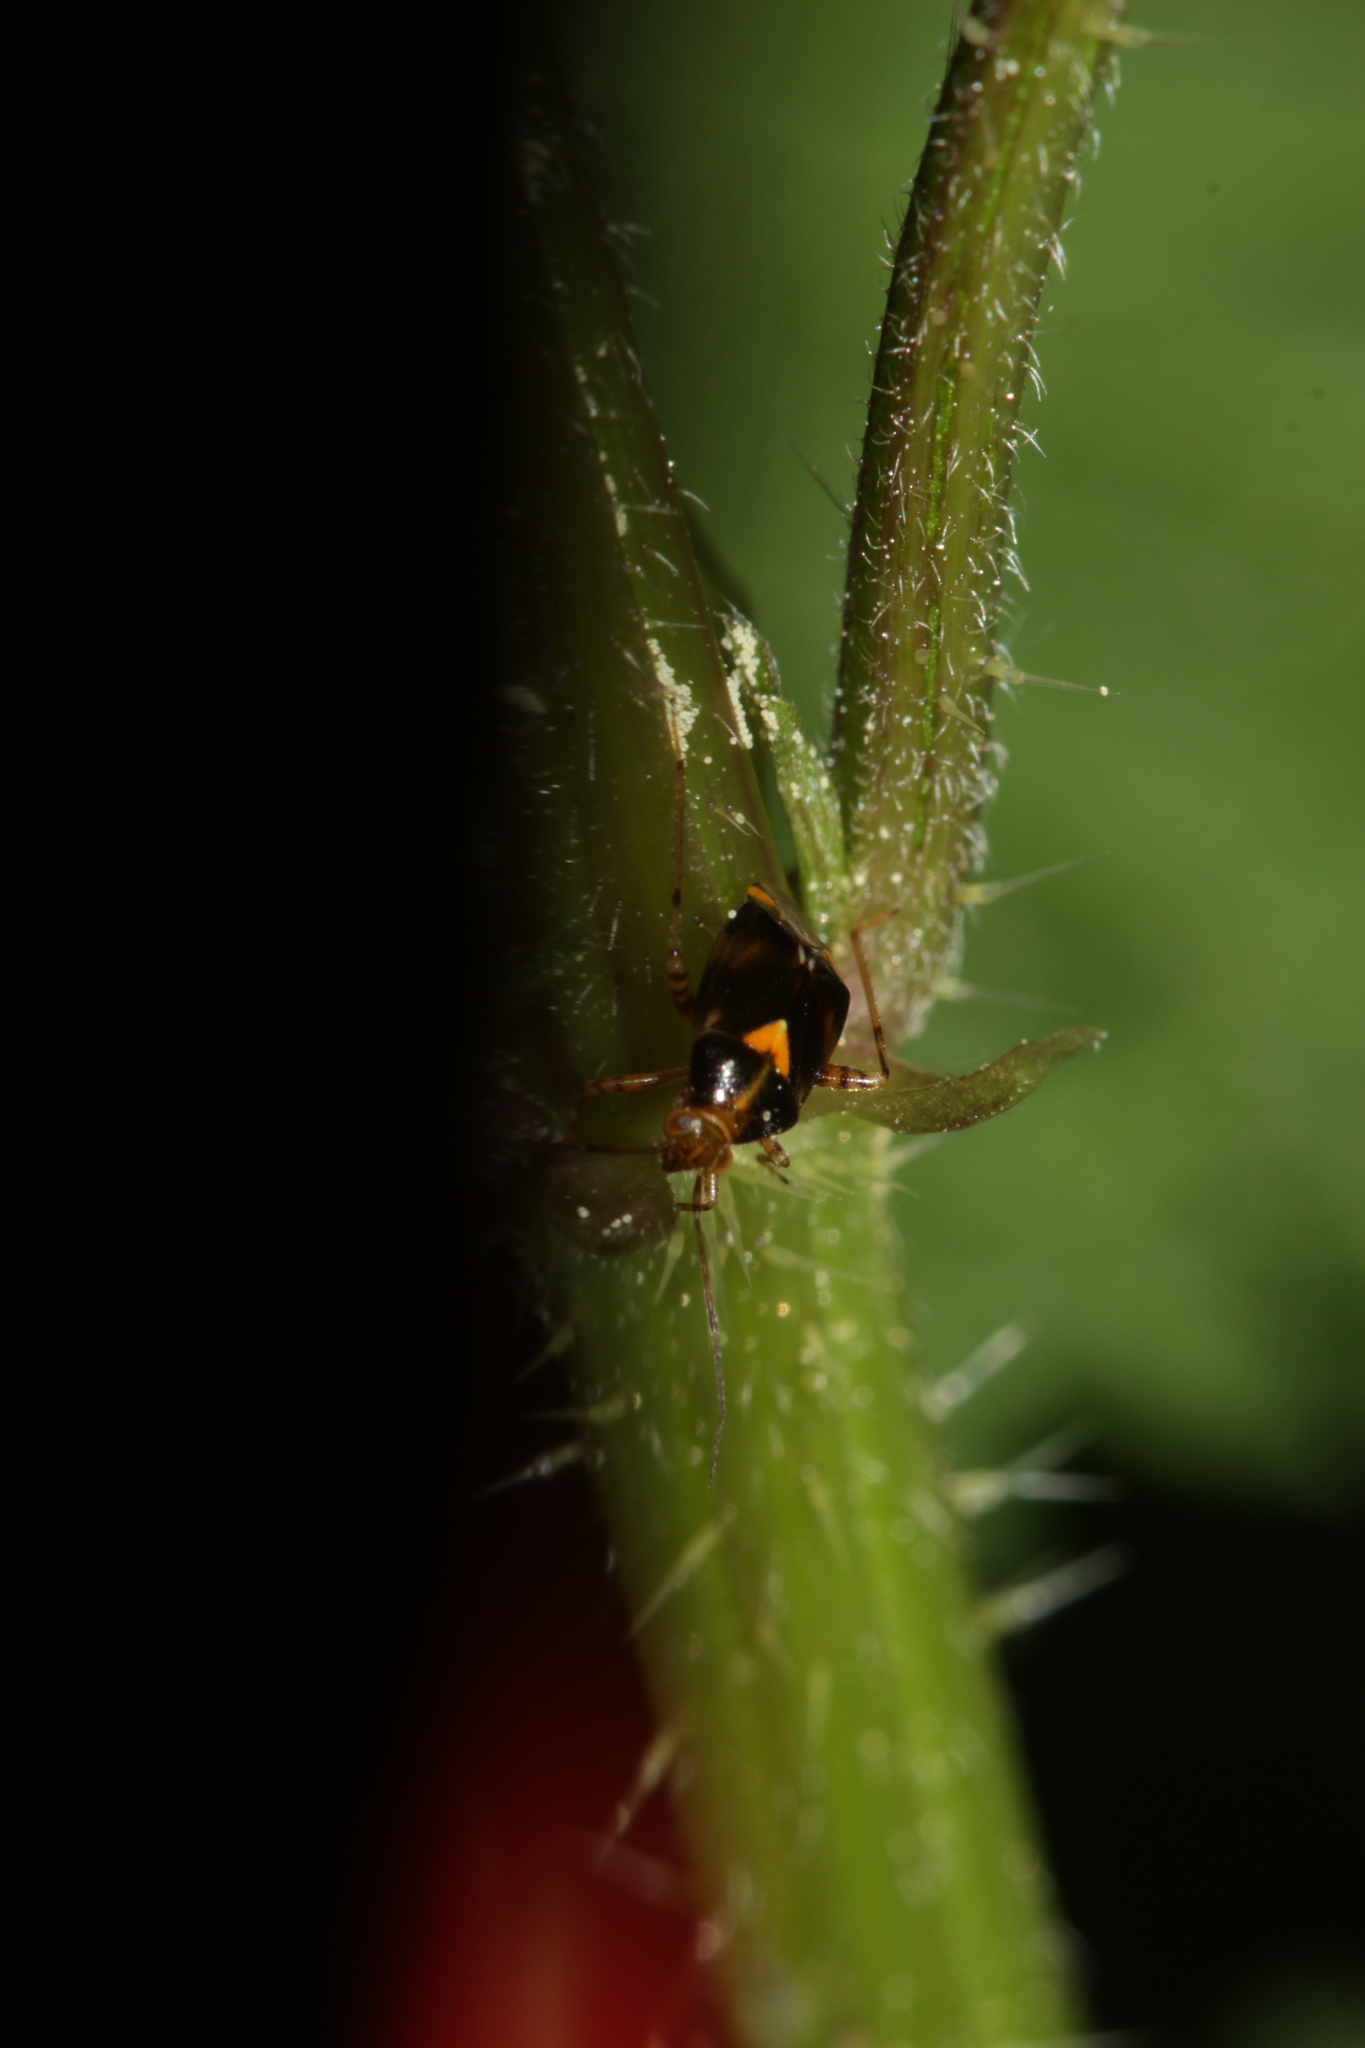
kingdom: Animalia
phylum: Arthropoda
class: Insecta
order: Hemiptera
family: Miridae
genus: Liocoris
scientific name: Liocoris tripustulatus
